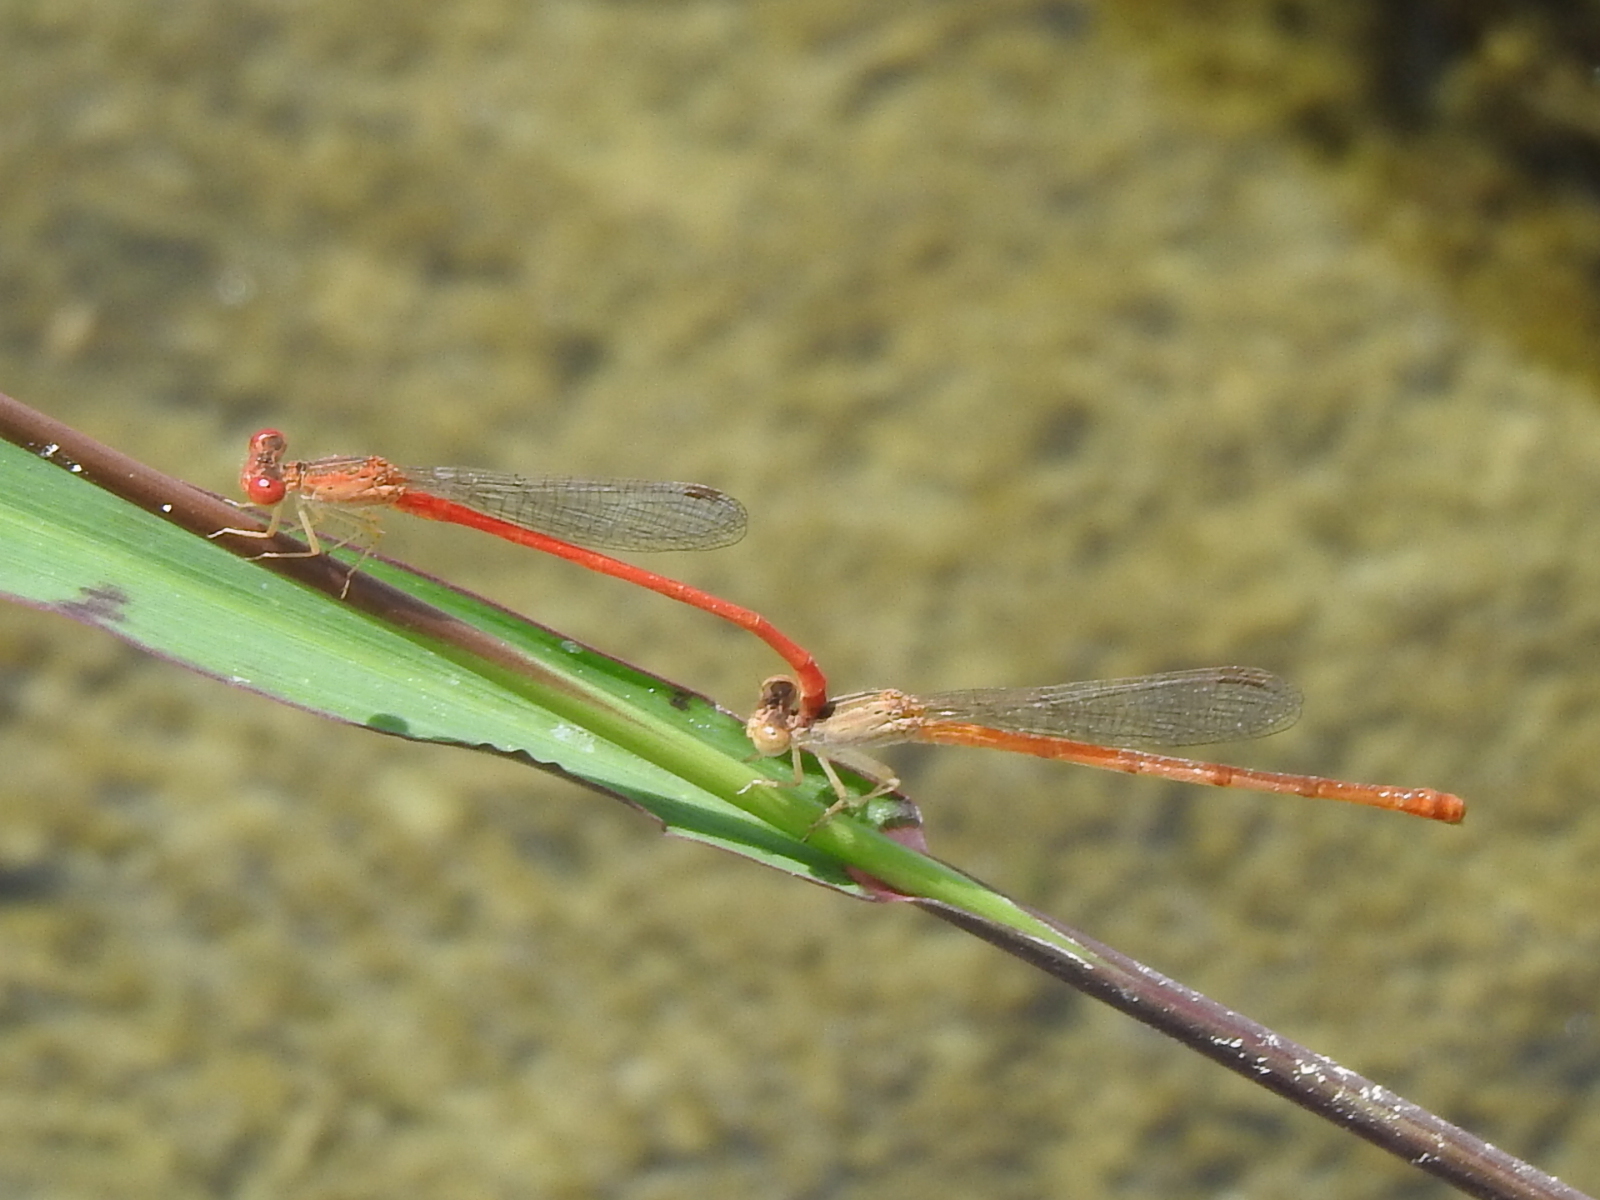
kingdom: Animalia
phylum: Arthropoda
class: Insecta
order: Odonata
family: Coenagrionidae
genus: Telebasis
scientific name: Telebasis salva
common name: Desert firetail
